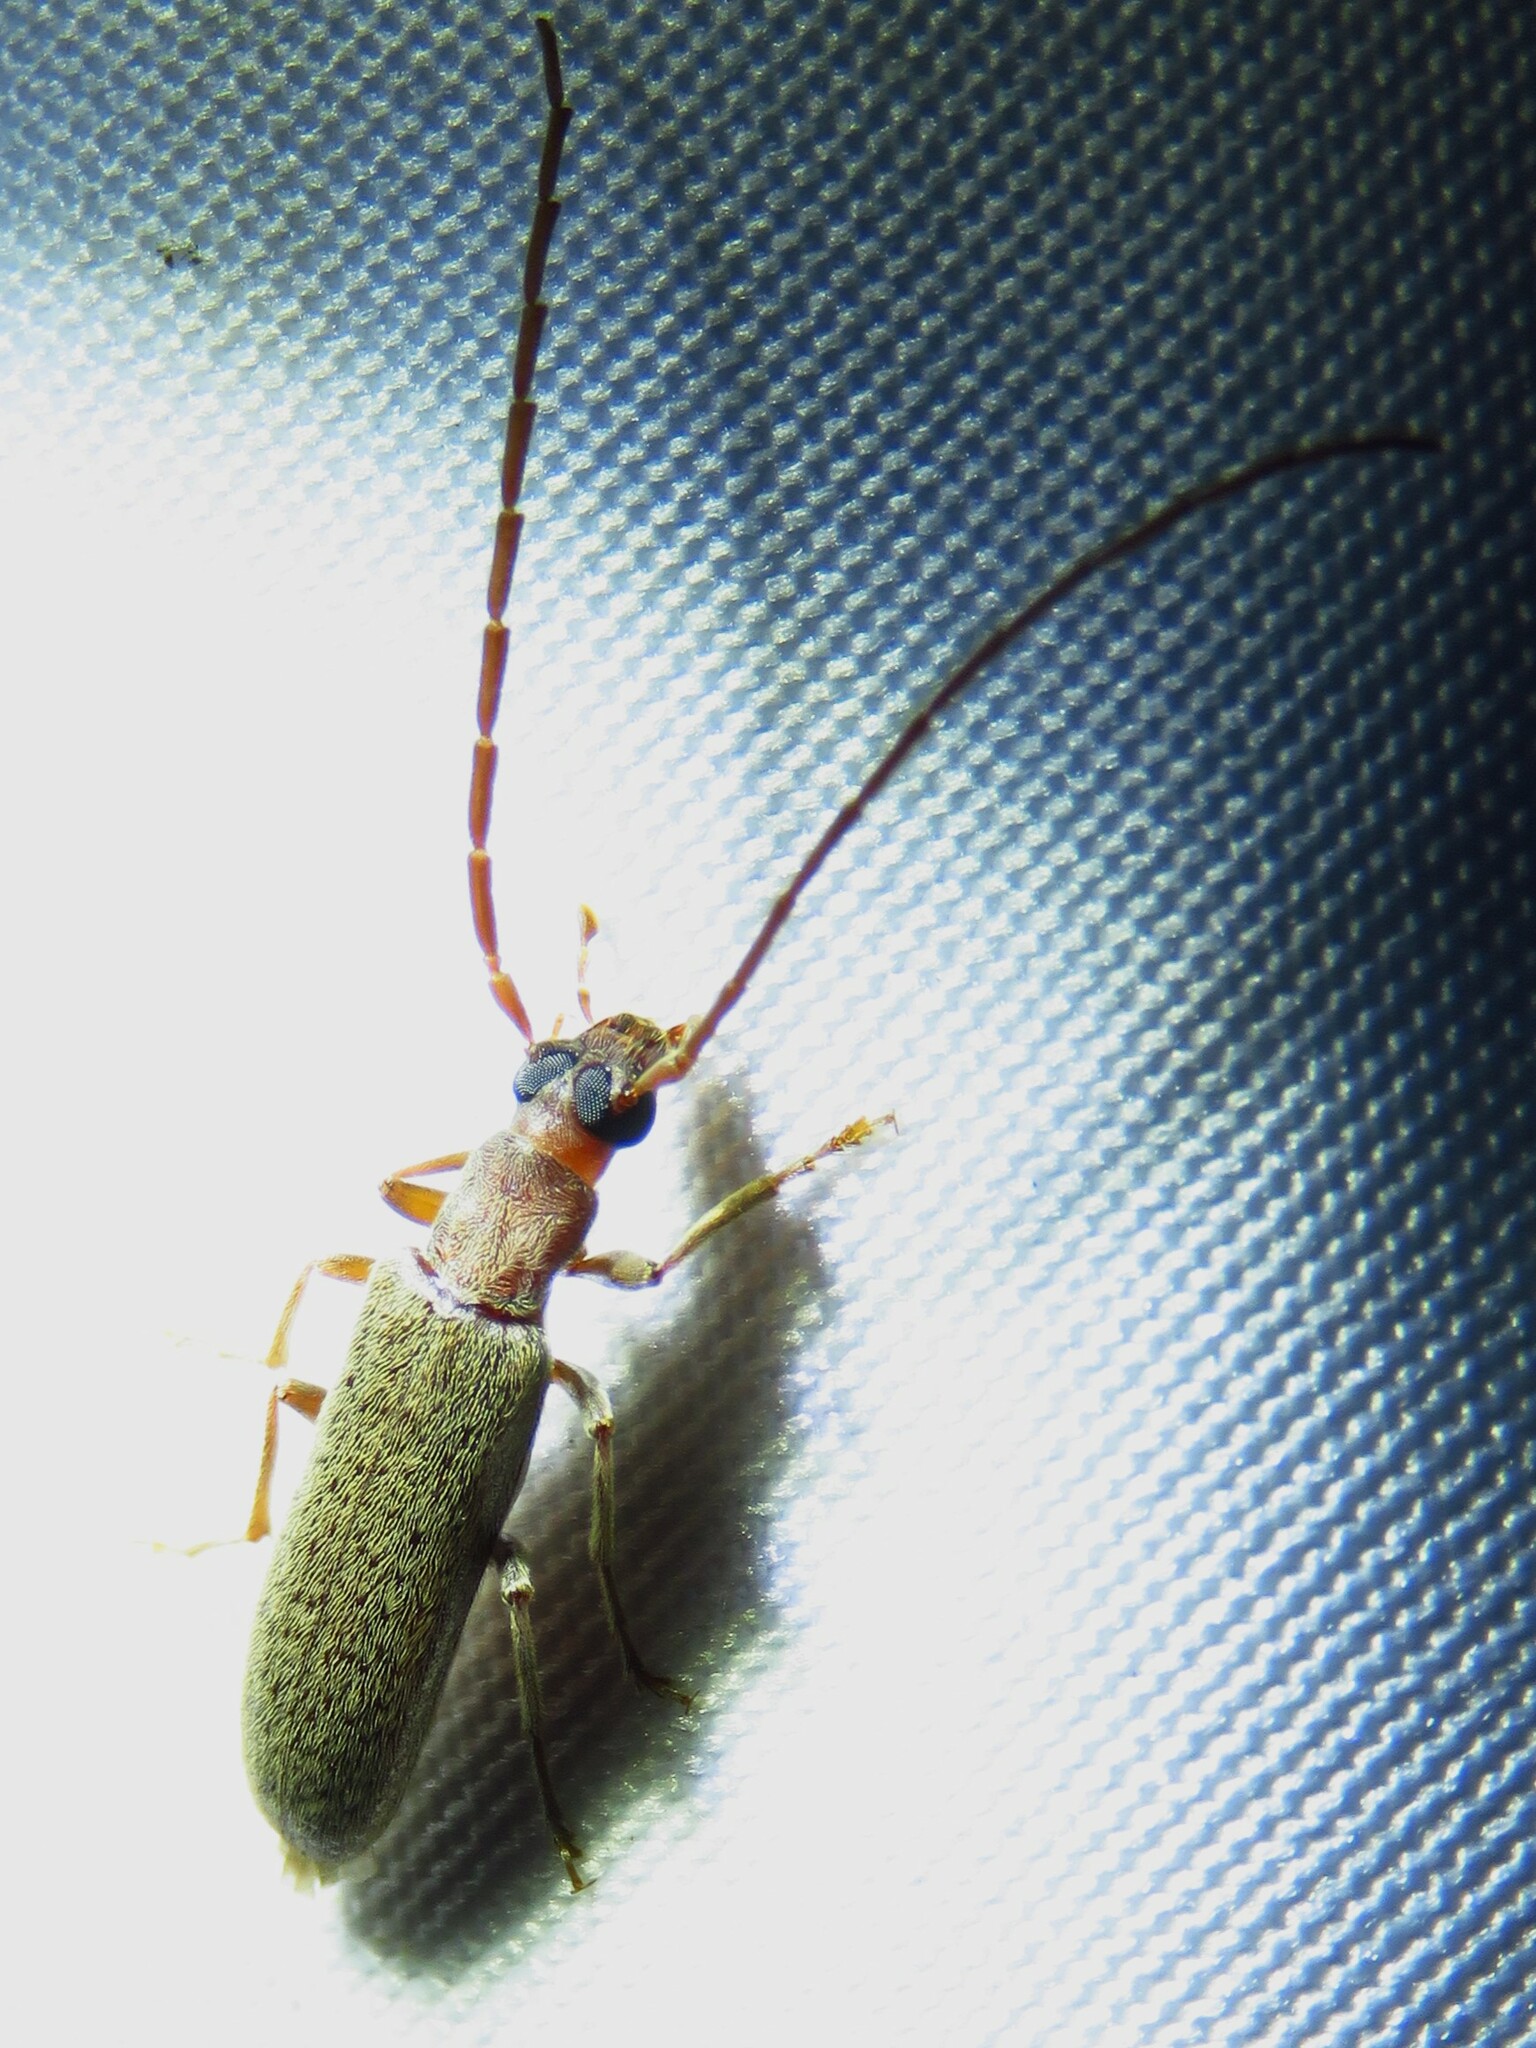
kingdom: Animalia
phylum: Arthropoda
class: Insecta
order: Coleoptera
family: Oedemeridae
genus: Sparedrus
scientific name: Sparedrus aspersus
